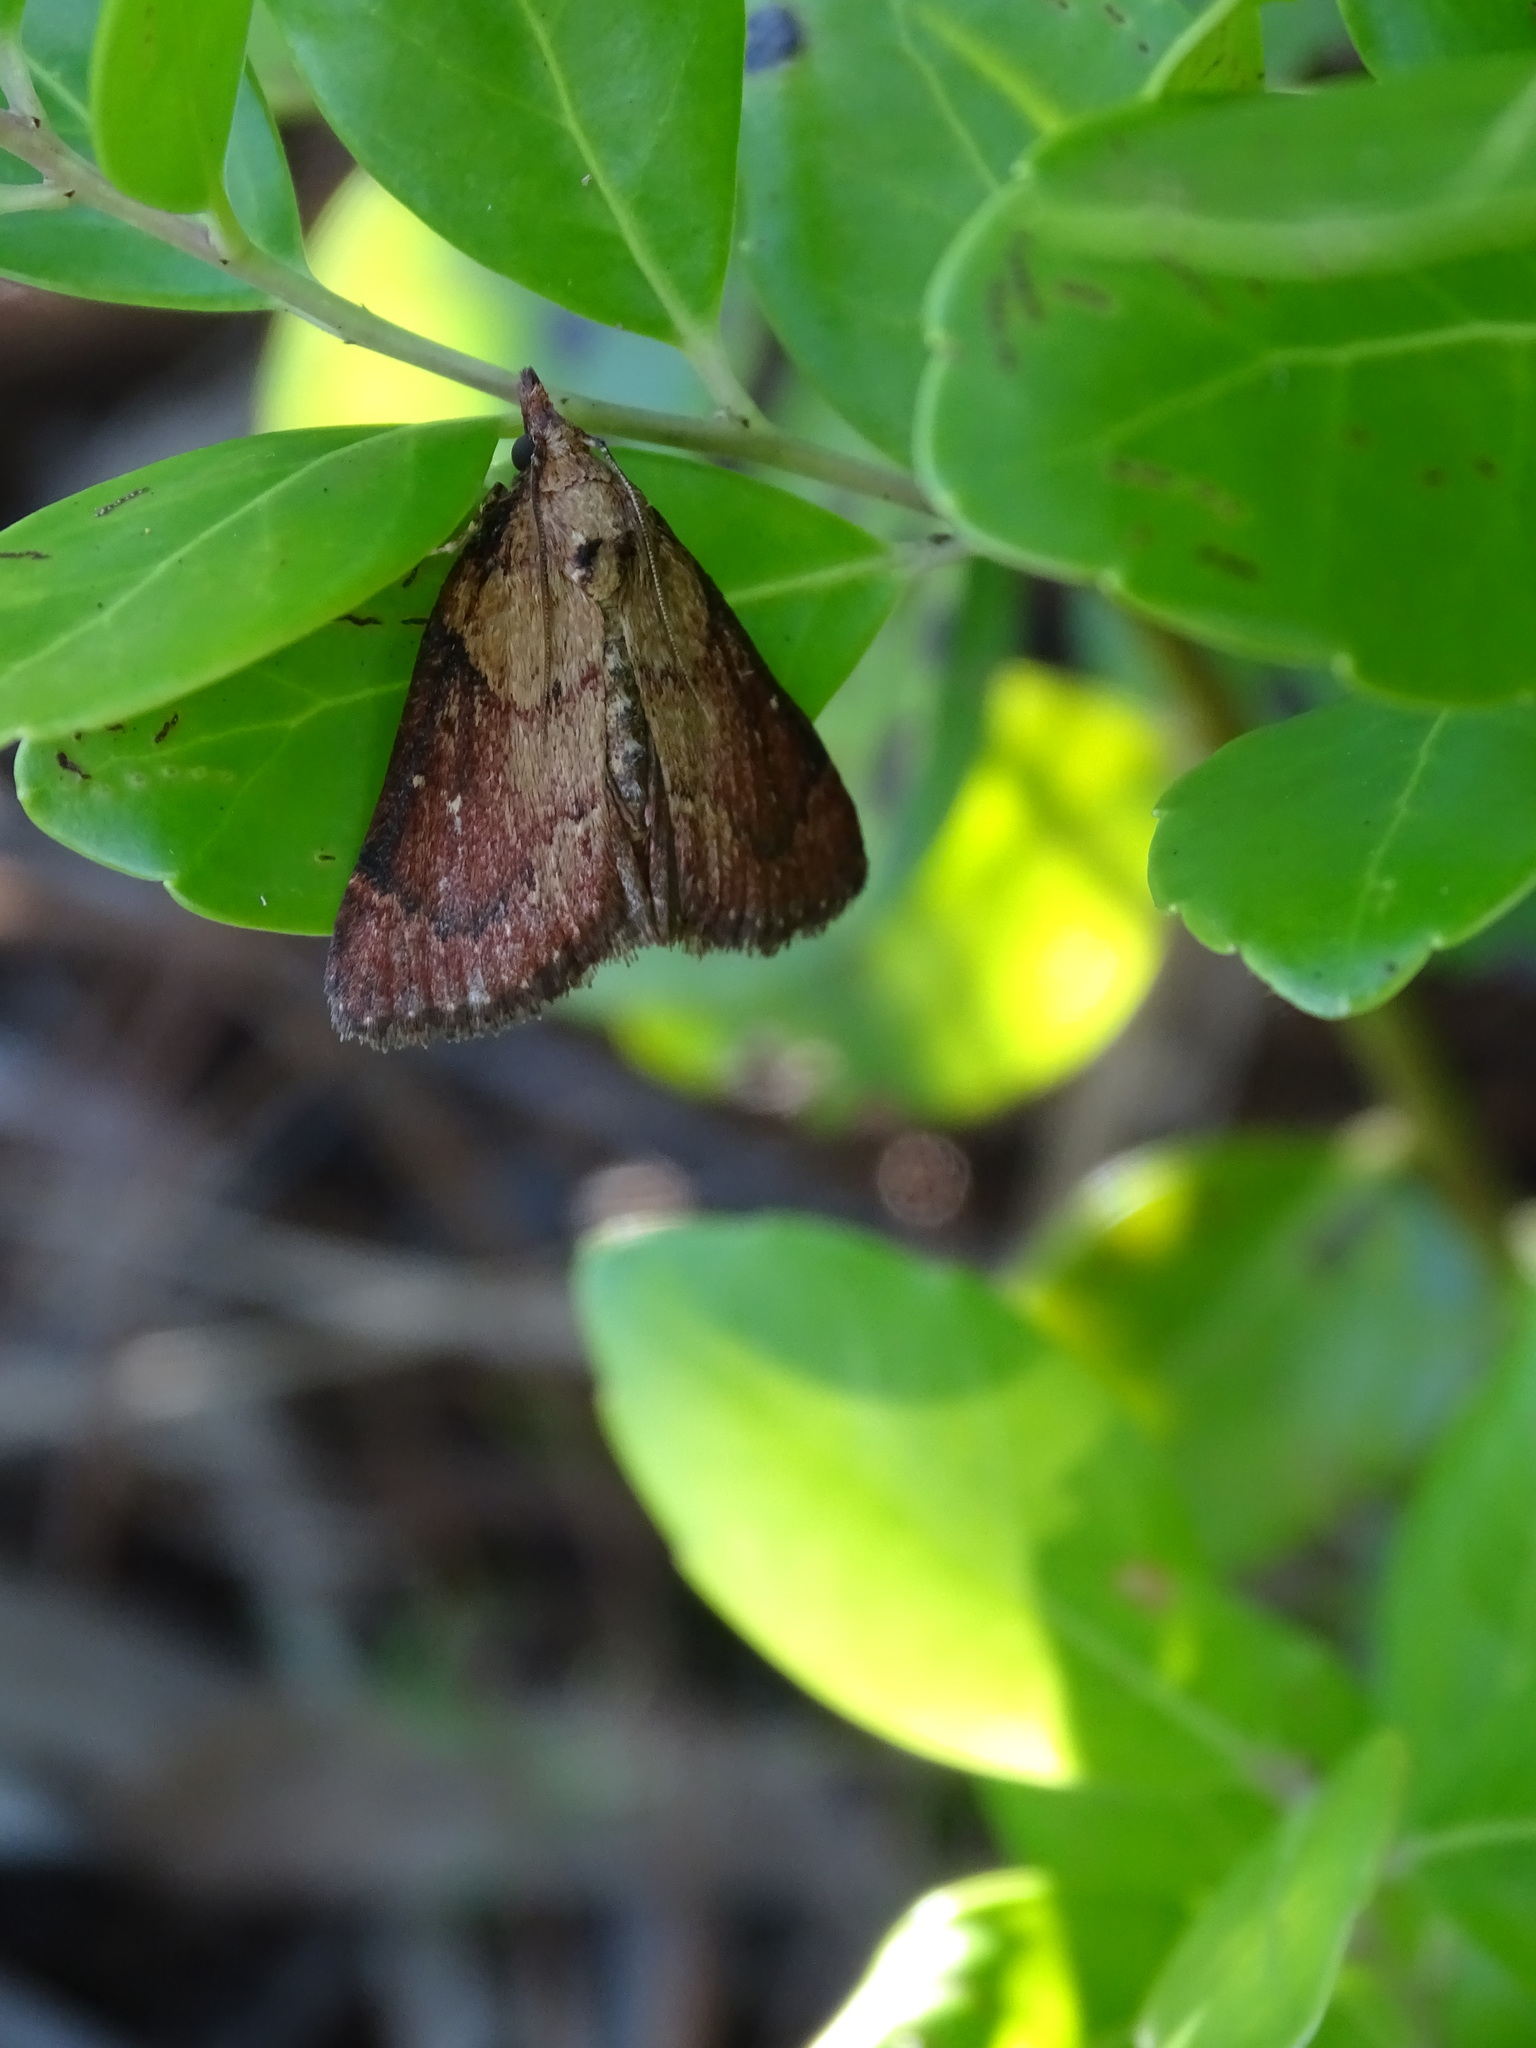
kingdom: Animalia
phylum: Arthropoda
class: Insecta
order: Lepidoptera
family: Pyralidae
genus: Omphalocera
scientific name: Omphalocera munroei
